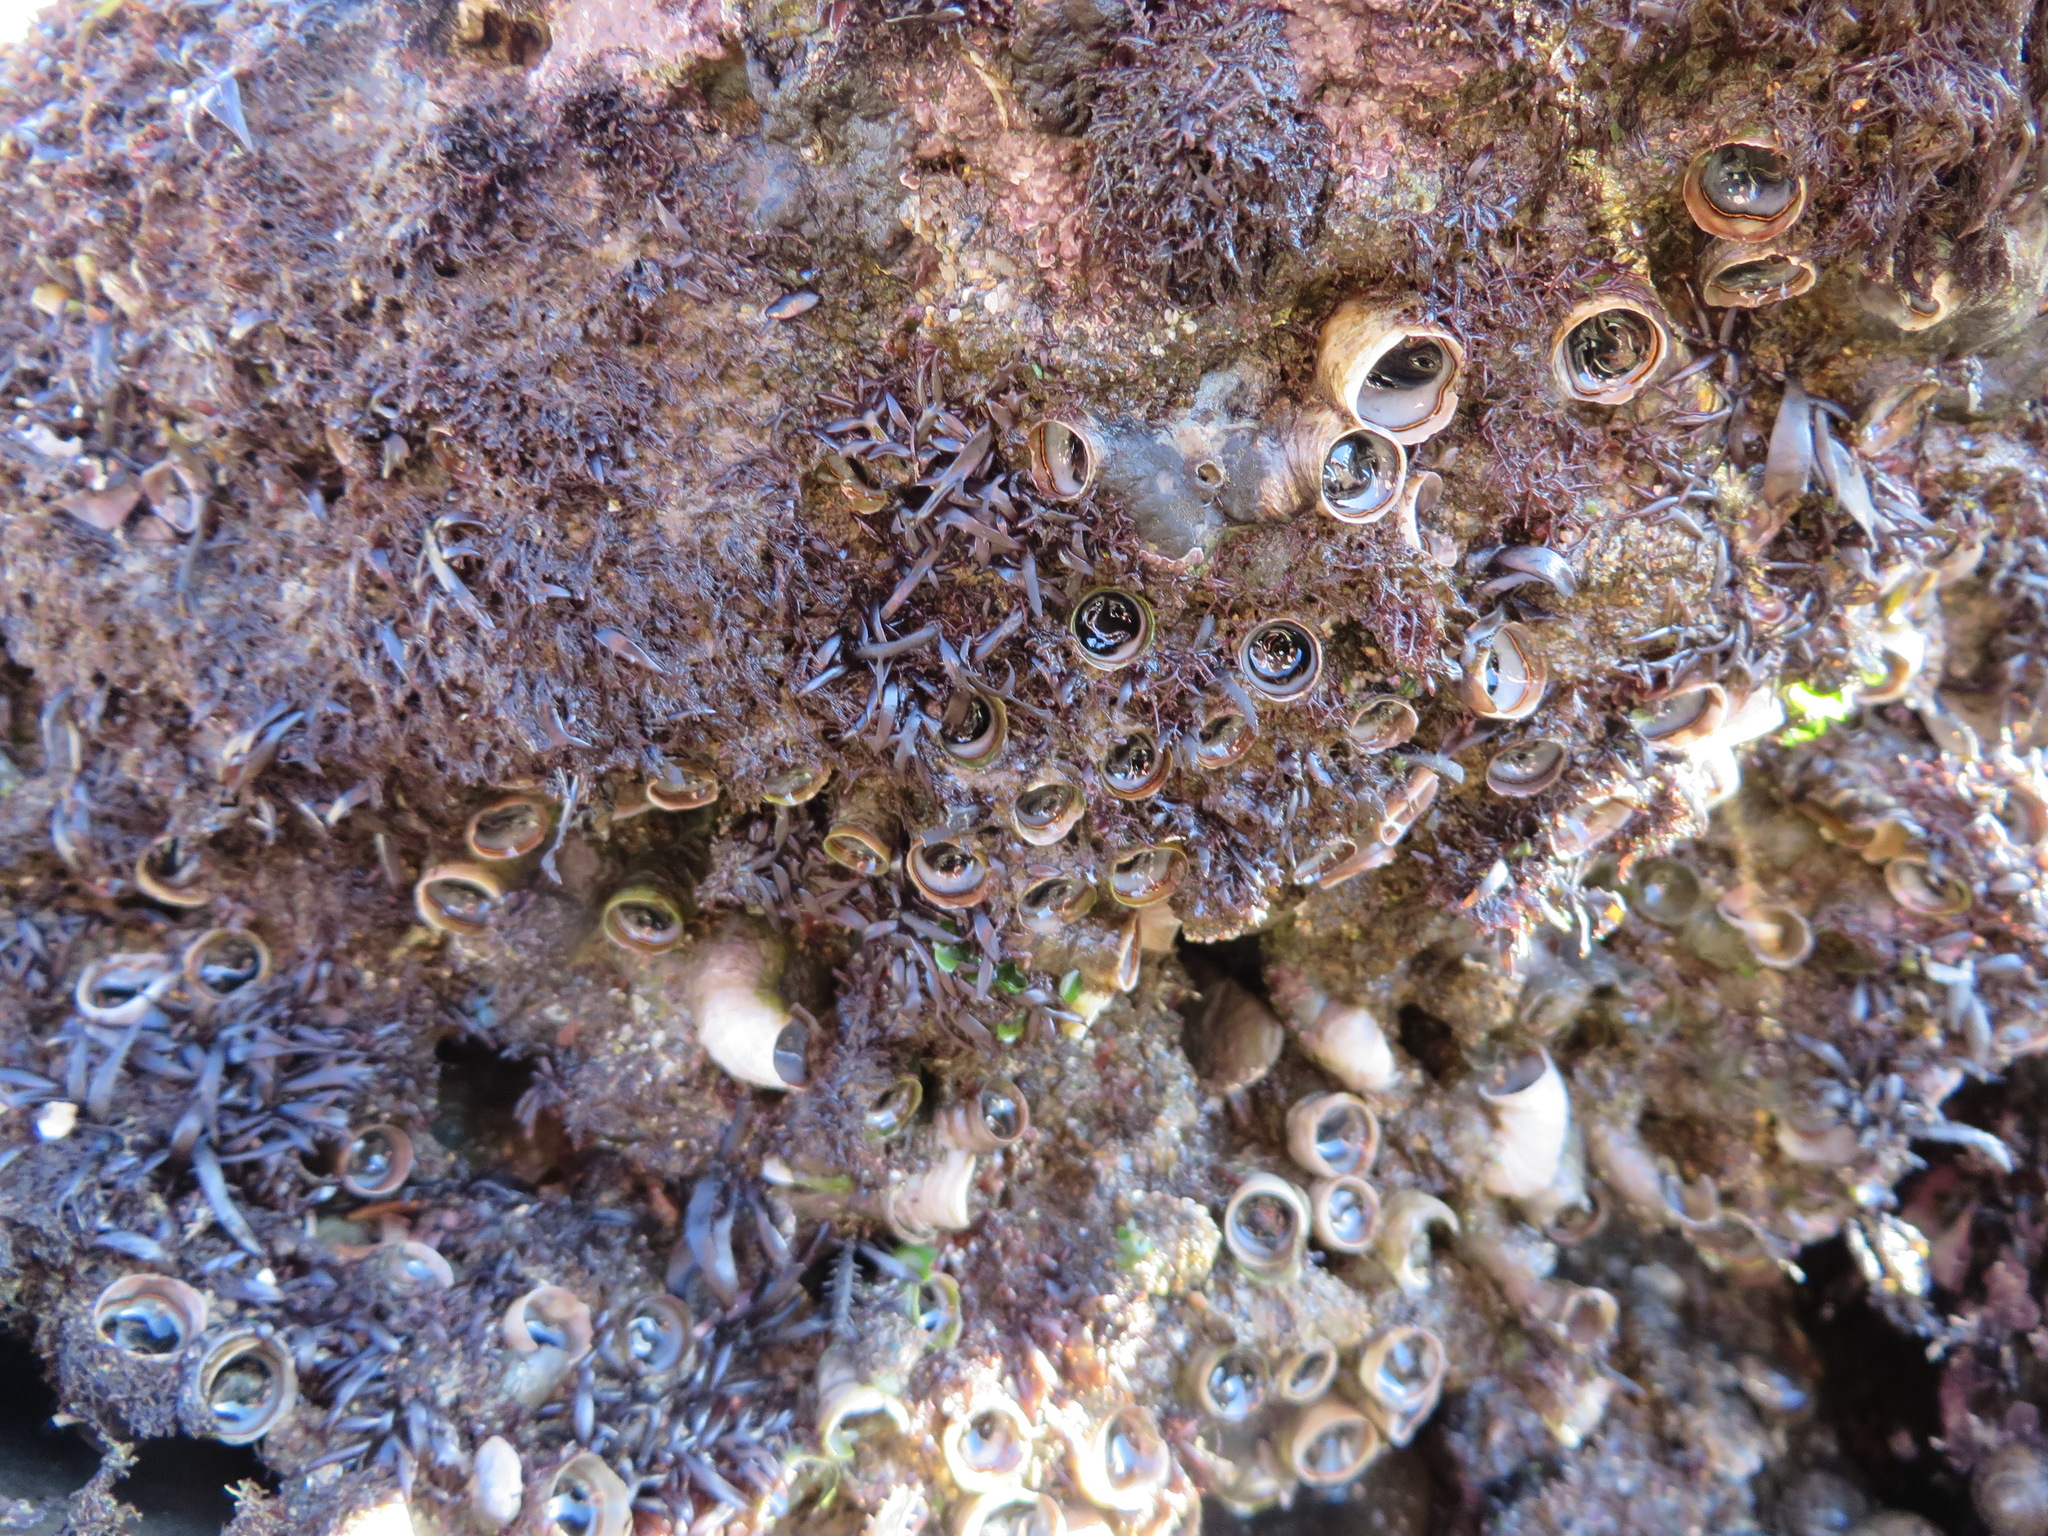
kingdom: Animalia
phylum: Mollusca
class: Gastropoda
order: Littorinimorpha
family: Vermetidae
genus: Thylacodes
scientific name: Thylacodes squamigerus
